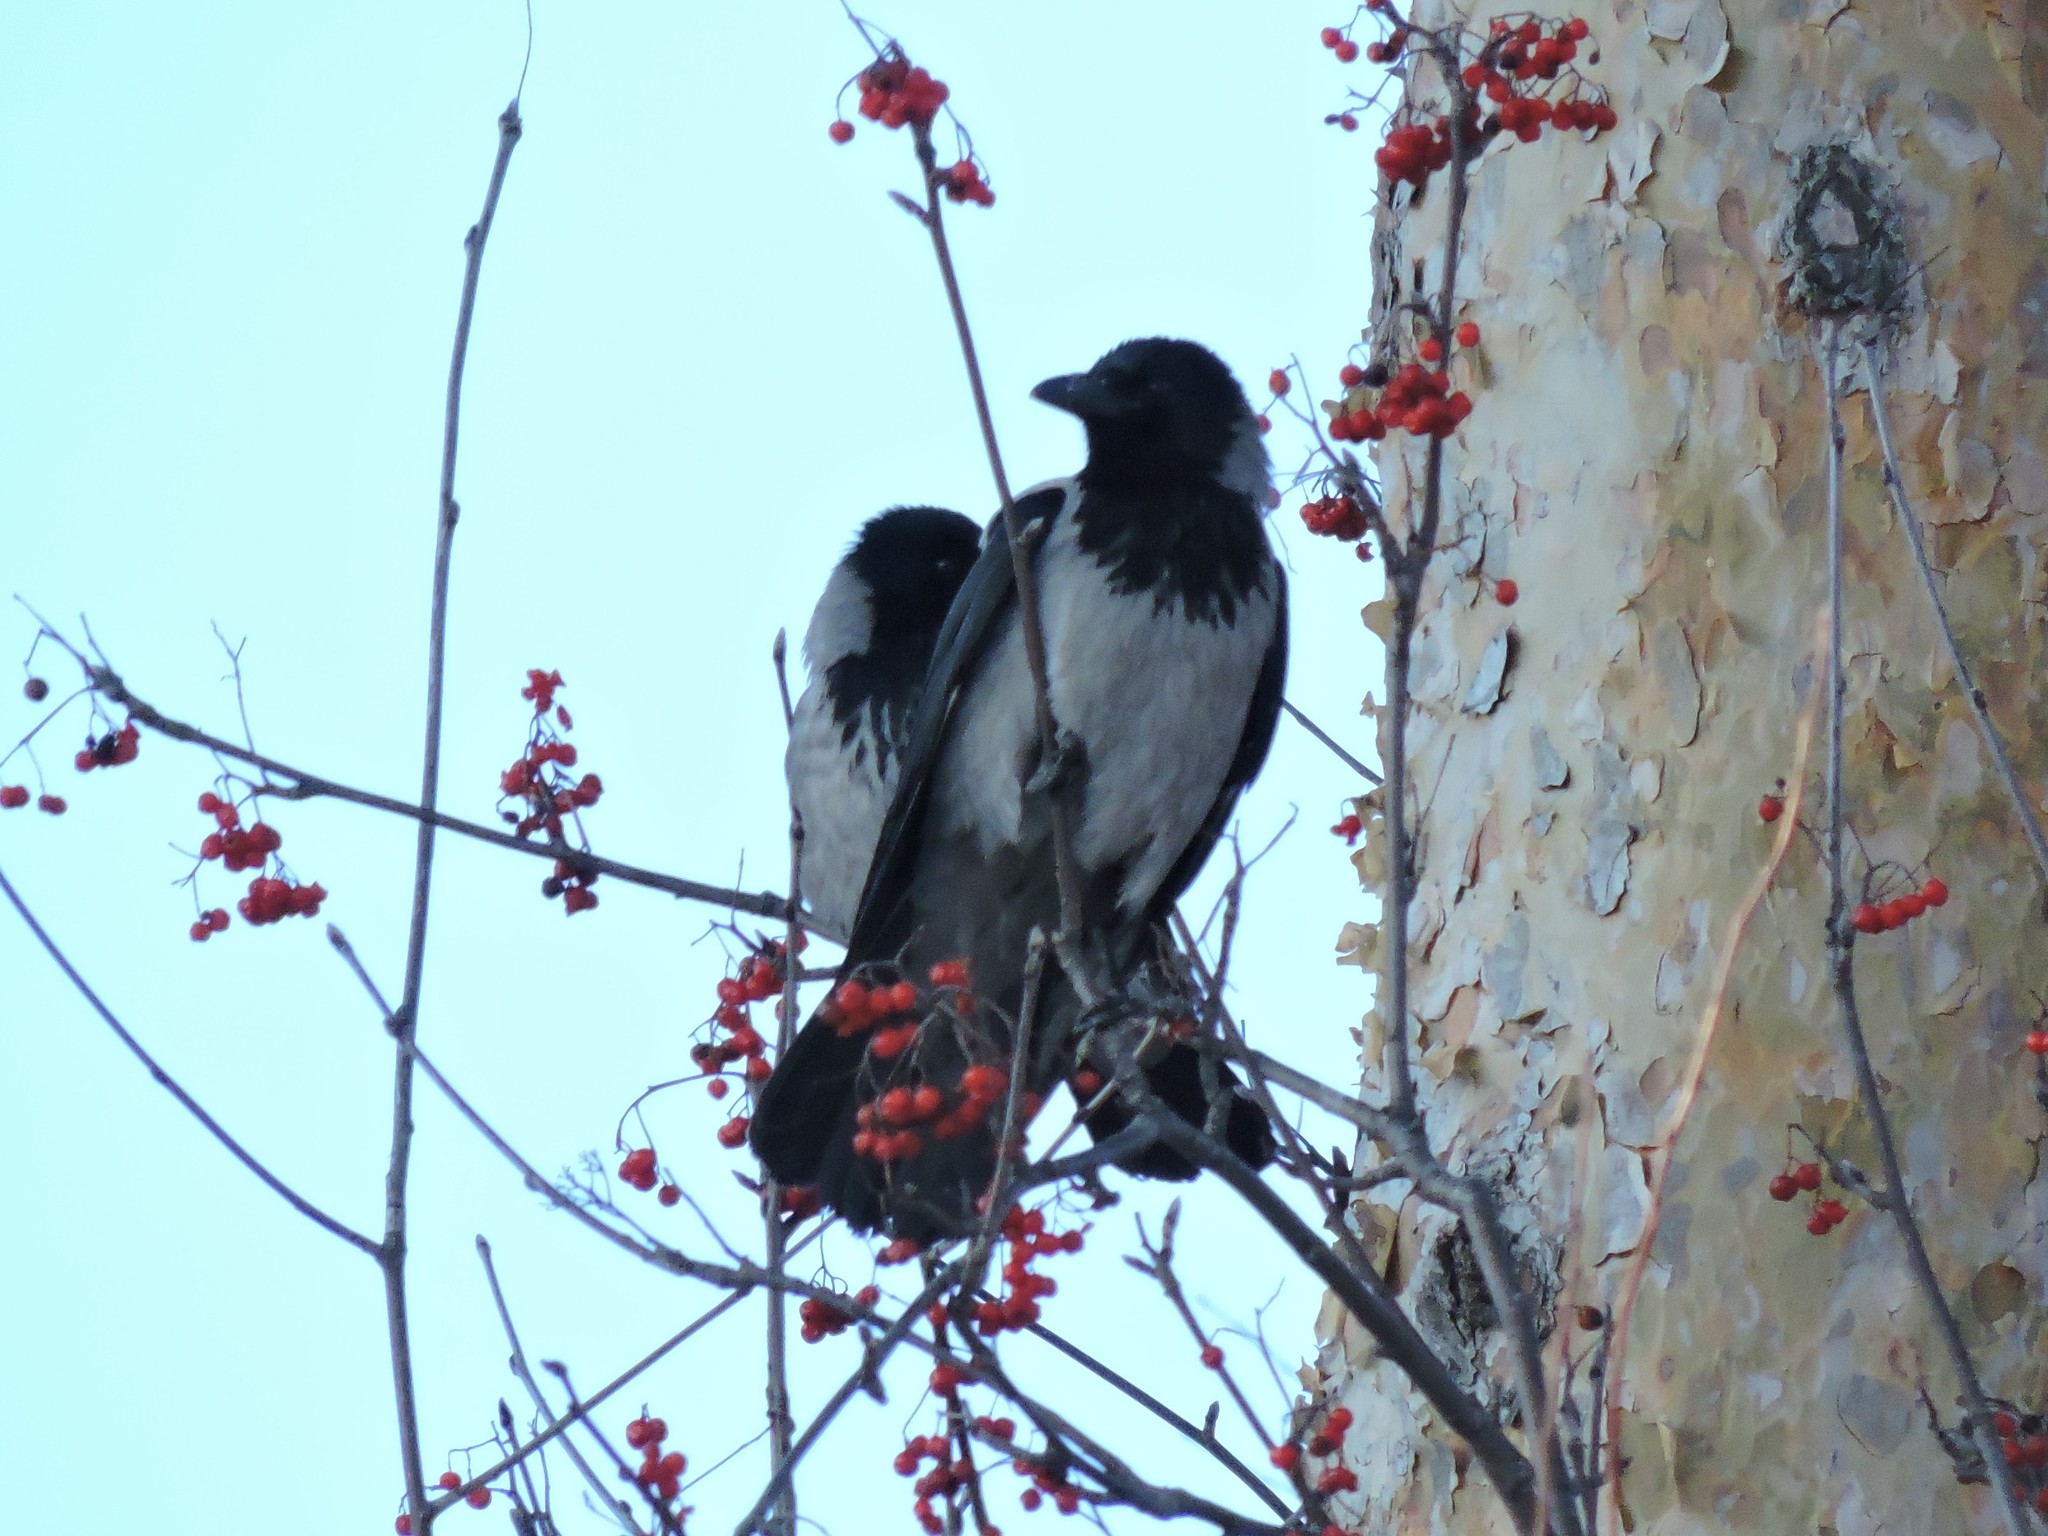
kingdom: Animalia
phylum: Chordata
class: Aves
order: Passeriformes
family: Corvidae
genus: Corvus
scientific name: Corvus cornix
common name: Hooded crow
